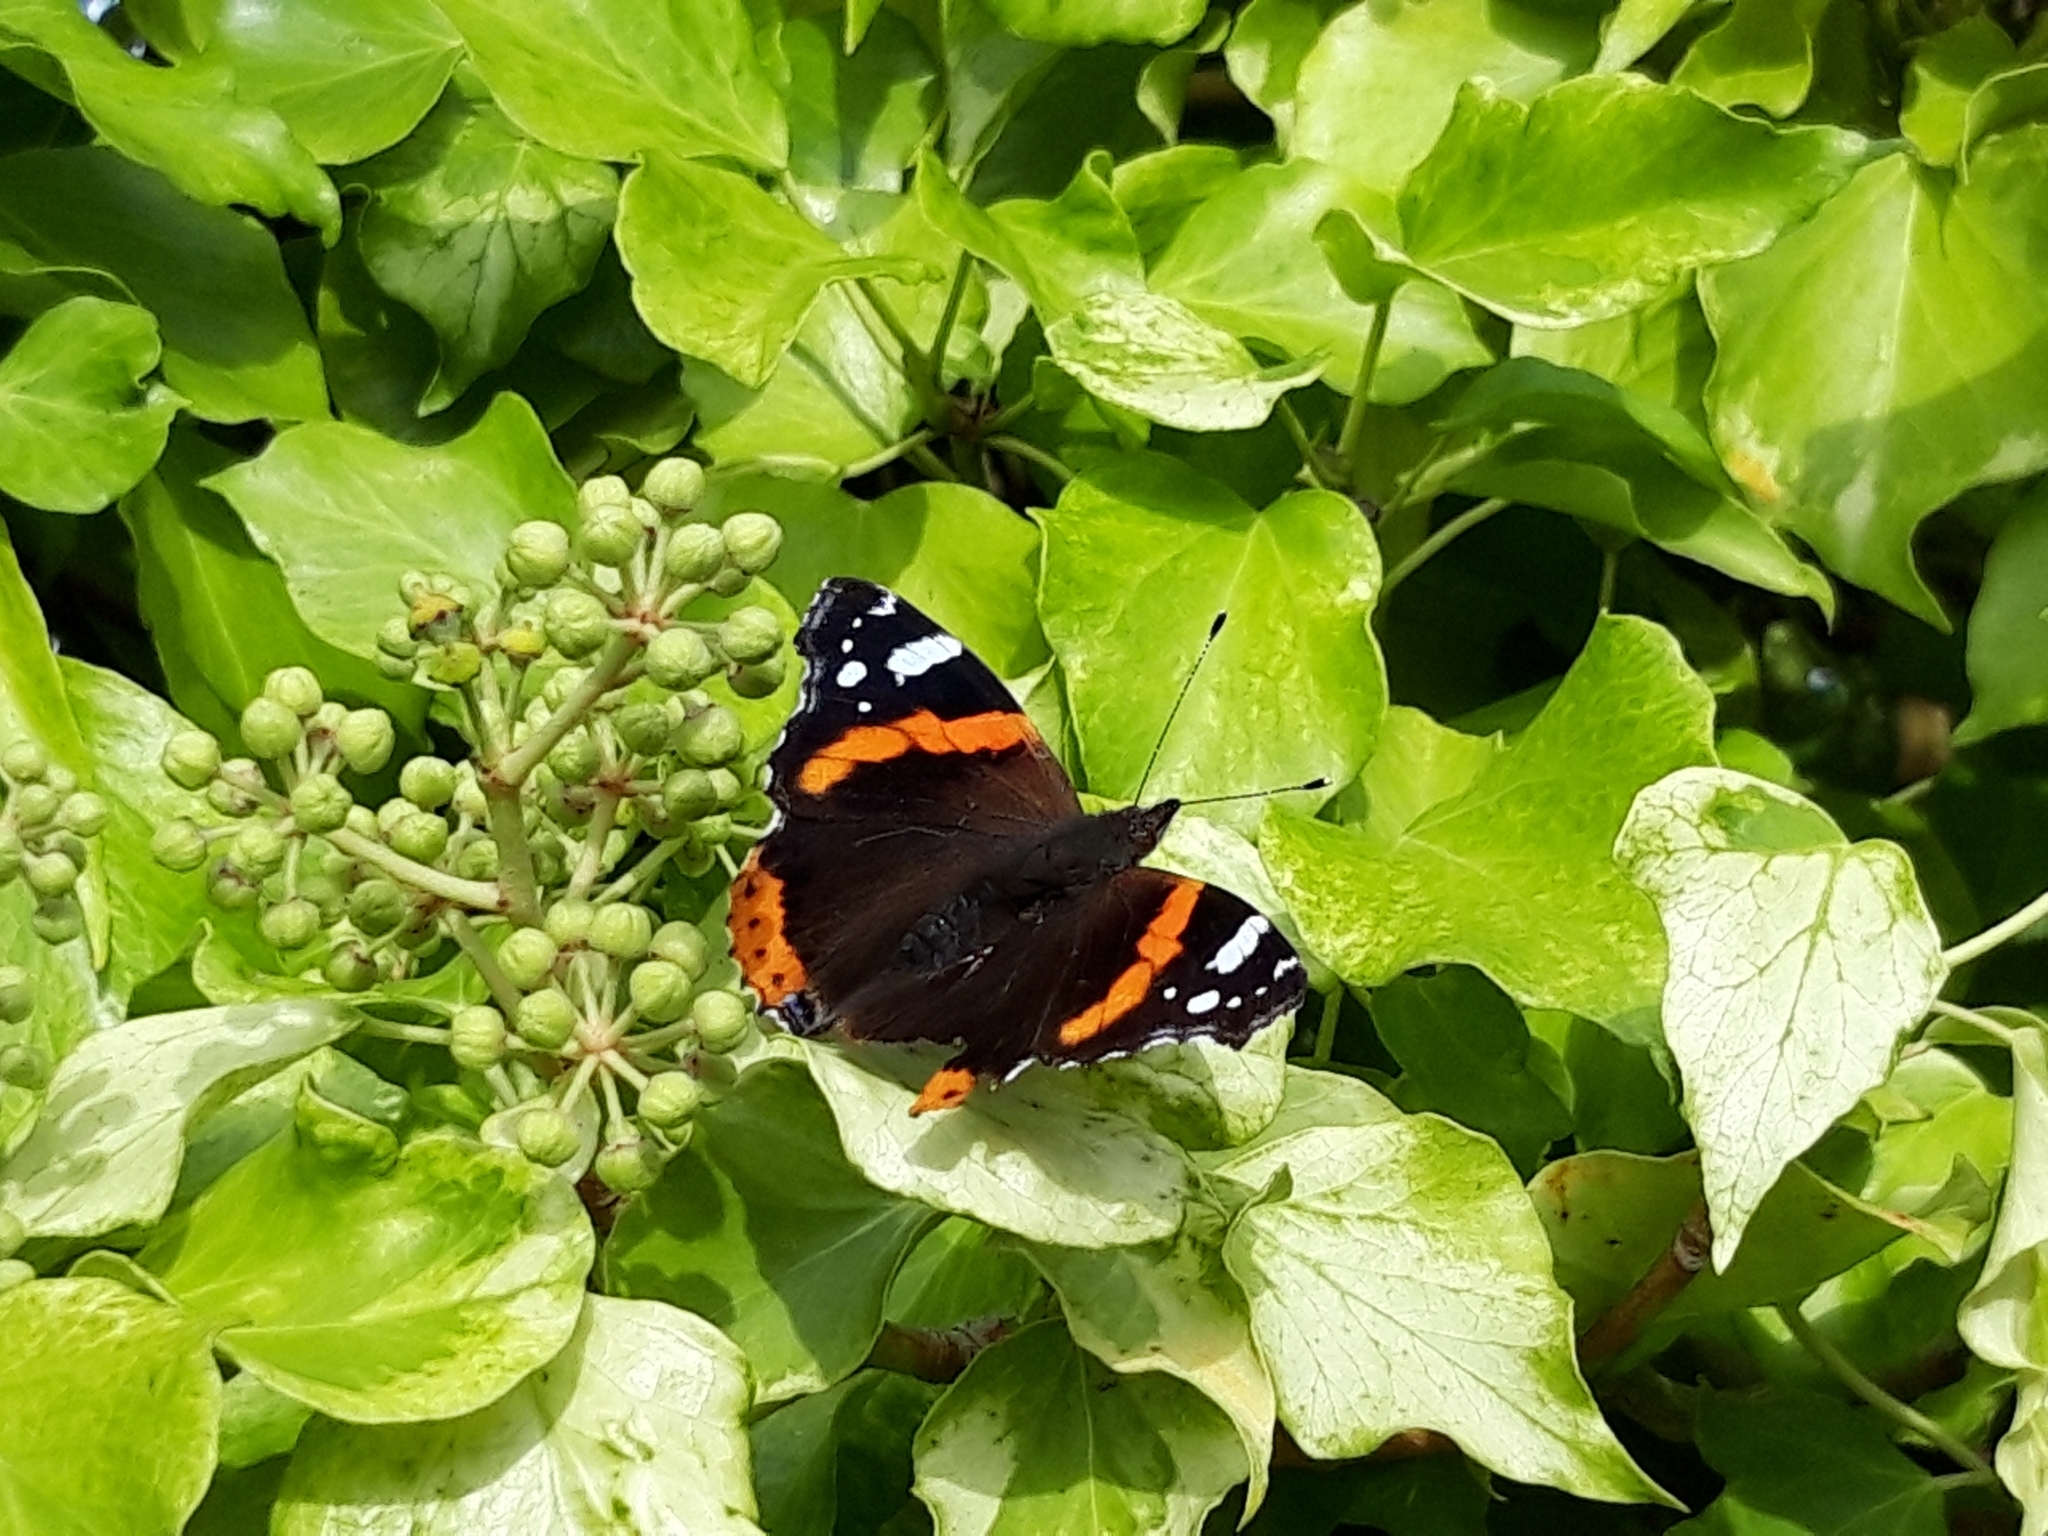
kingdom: Animalia
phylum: Arthropoda
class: Insecta
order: Lepidoptera
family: Nymphalidae
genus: Vanessa
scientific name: Vanessa atalanta
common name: Red admiral
